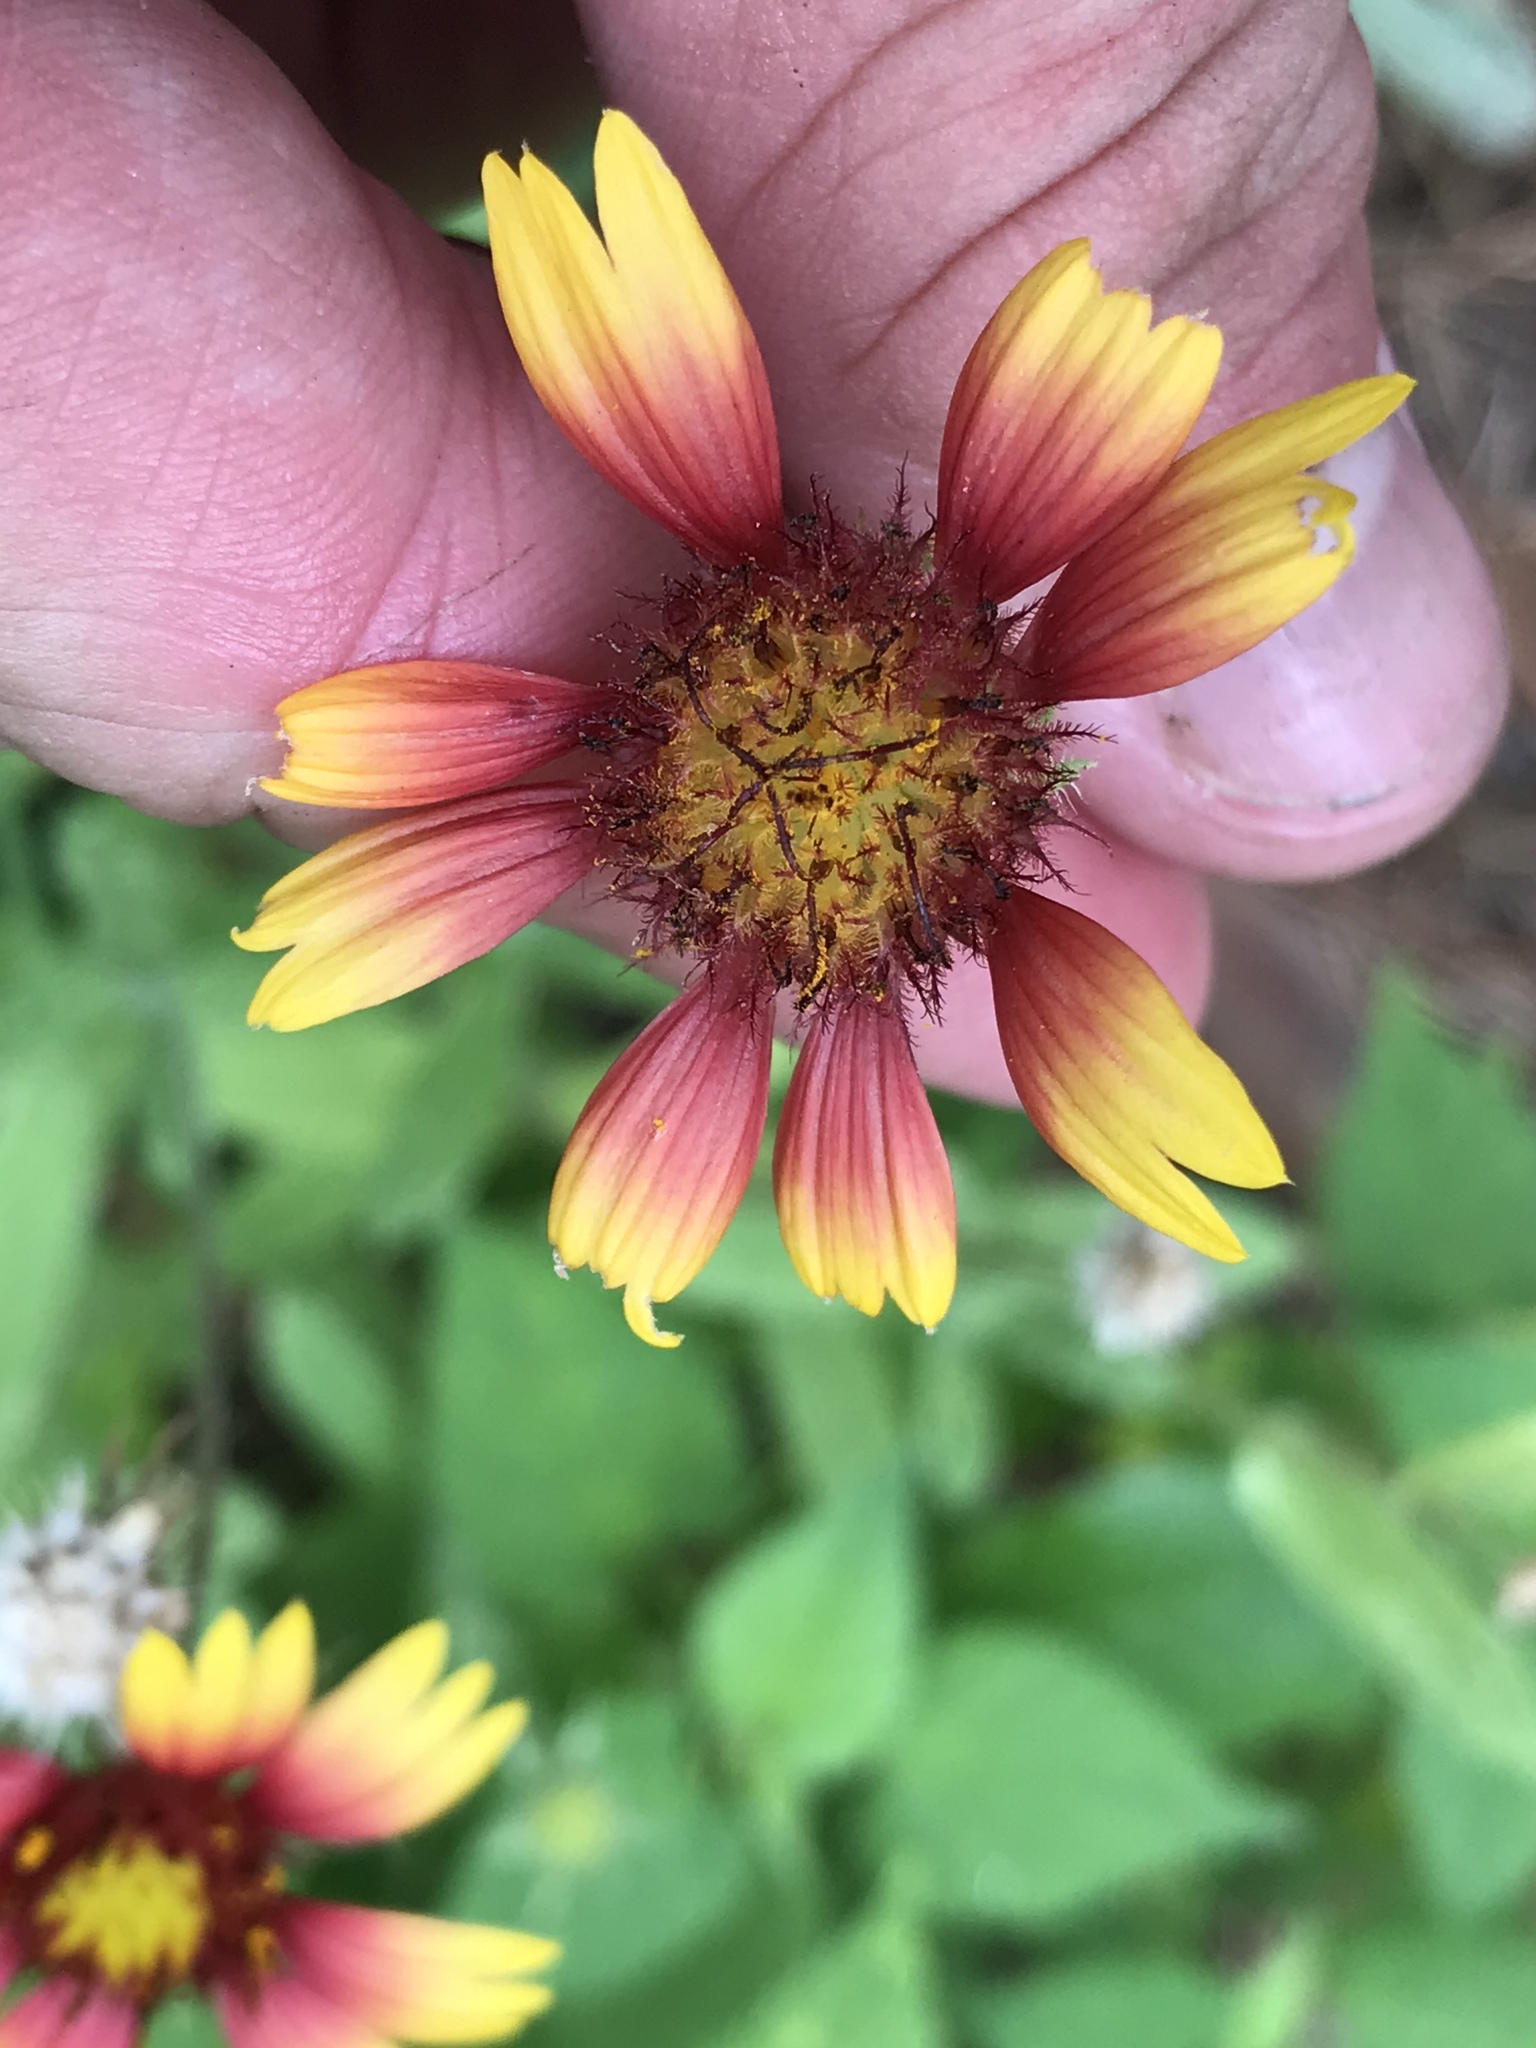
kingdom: Plantae
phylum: Tracheophyta
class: Magnoliopsida
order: Asterales
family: Asteraceae
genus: Gaillardia
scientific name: Gaillardia pulchella
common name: Firewheel
